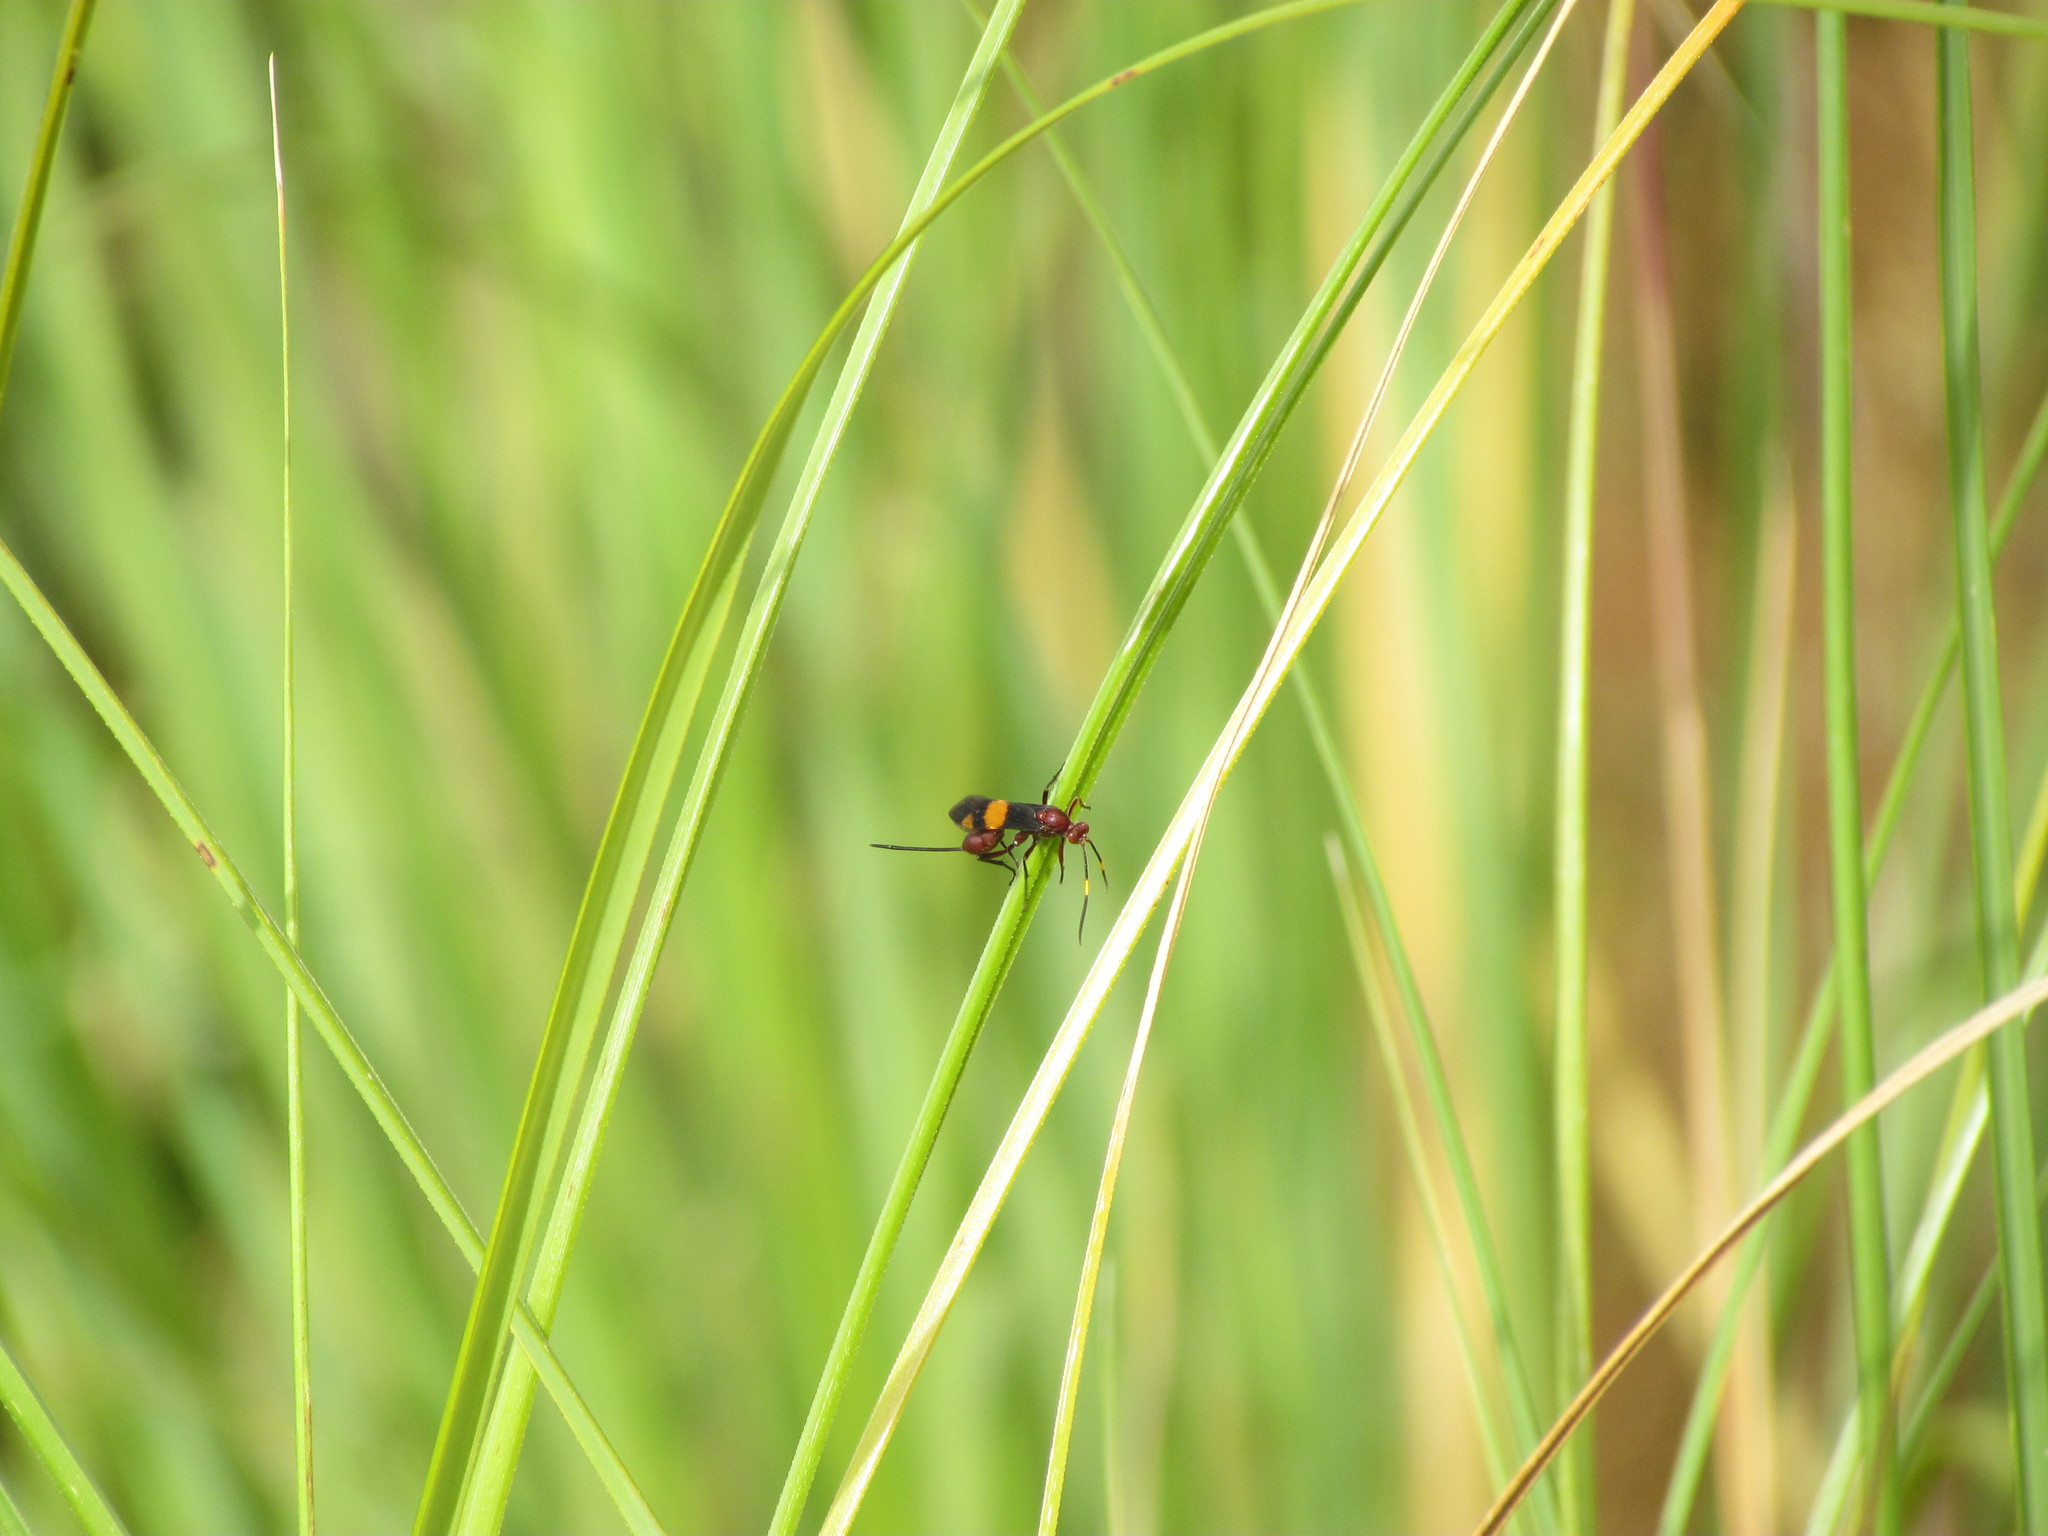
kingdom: Animalia
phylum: Arthropoda
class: Insecta
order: Hymenoptera
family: Ichneumonidae
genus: Compsocryptus
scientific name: Compsocryptus melanostigma
